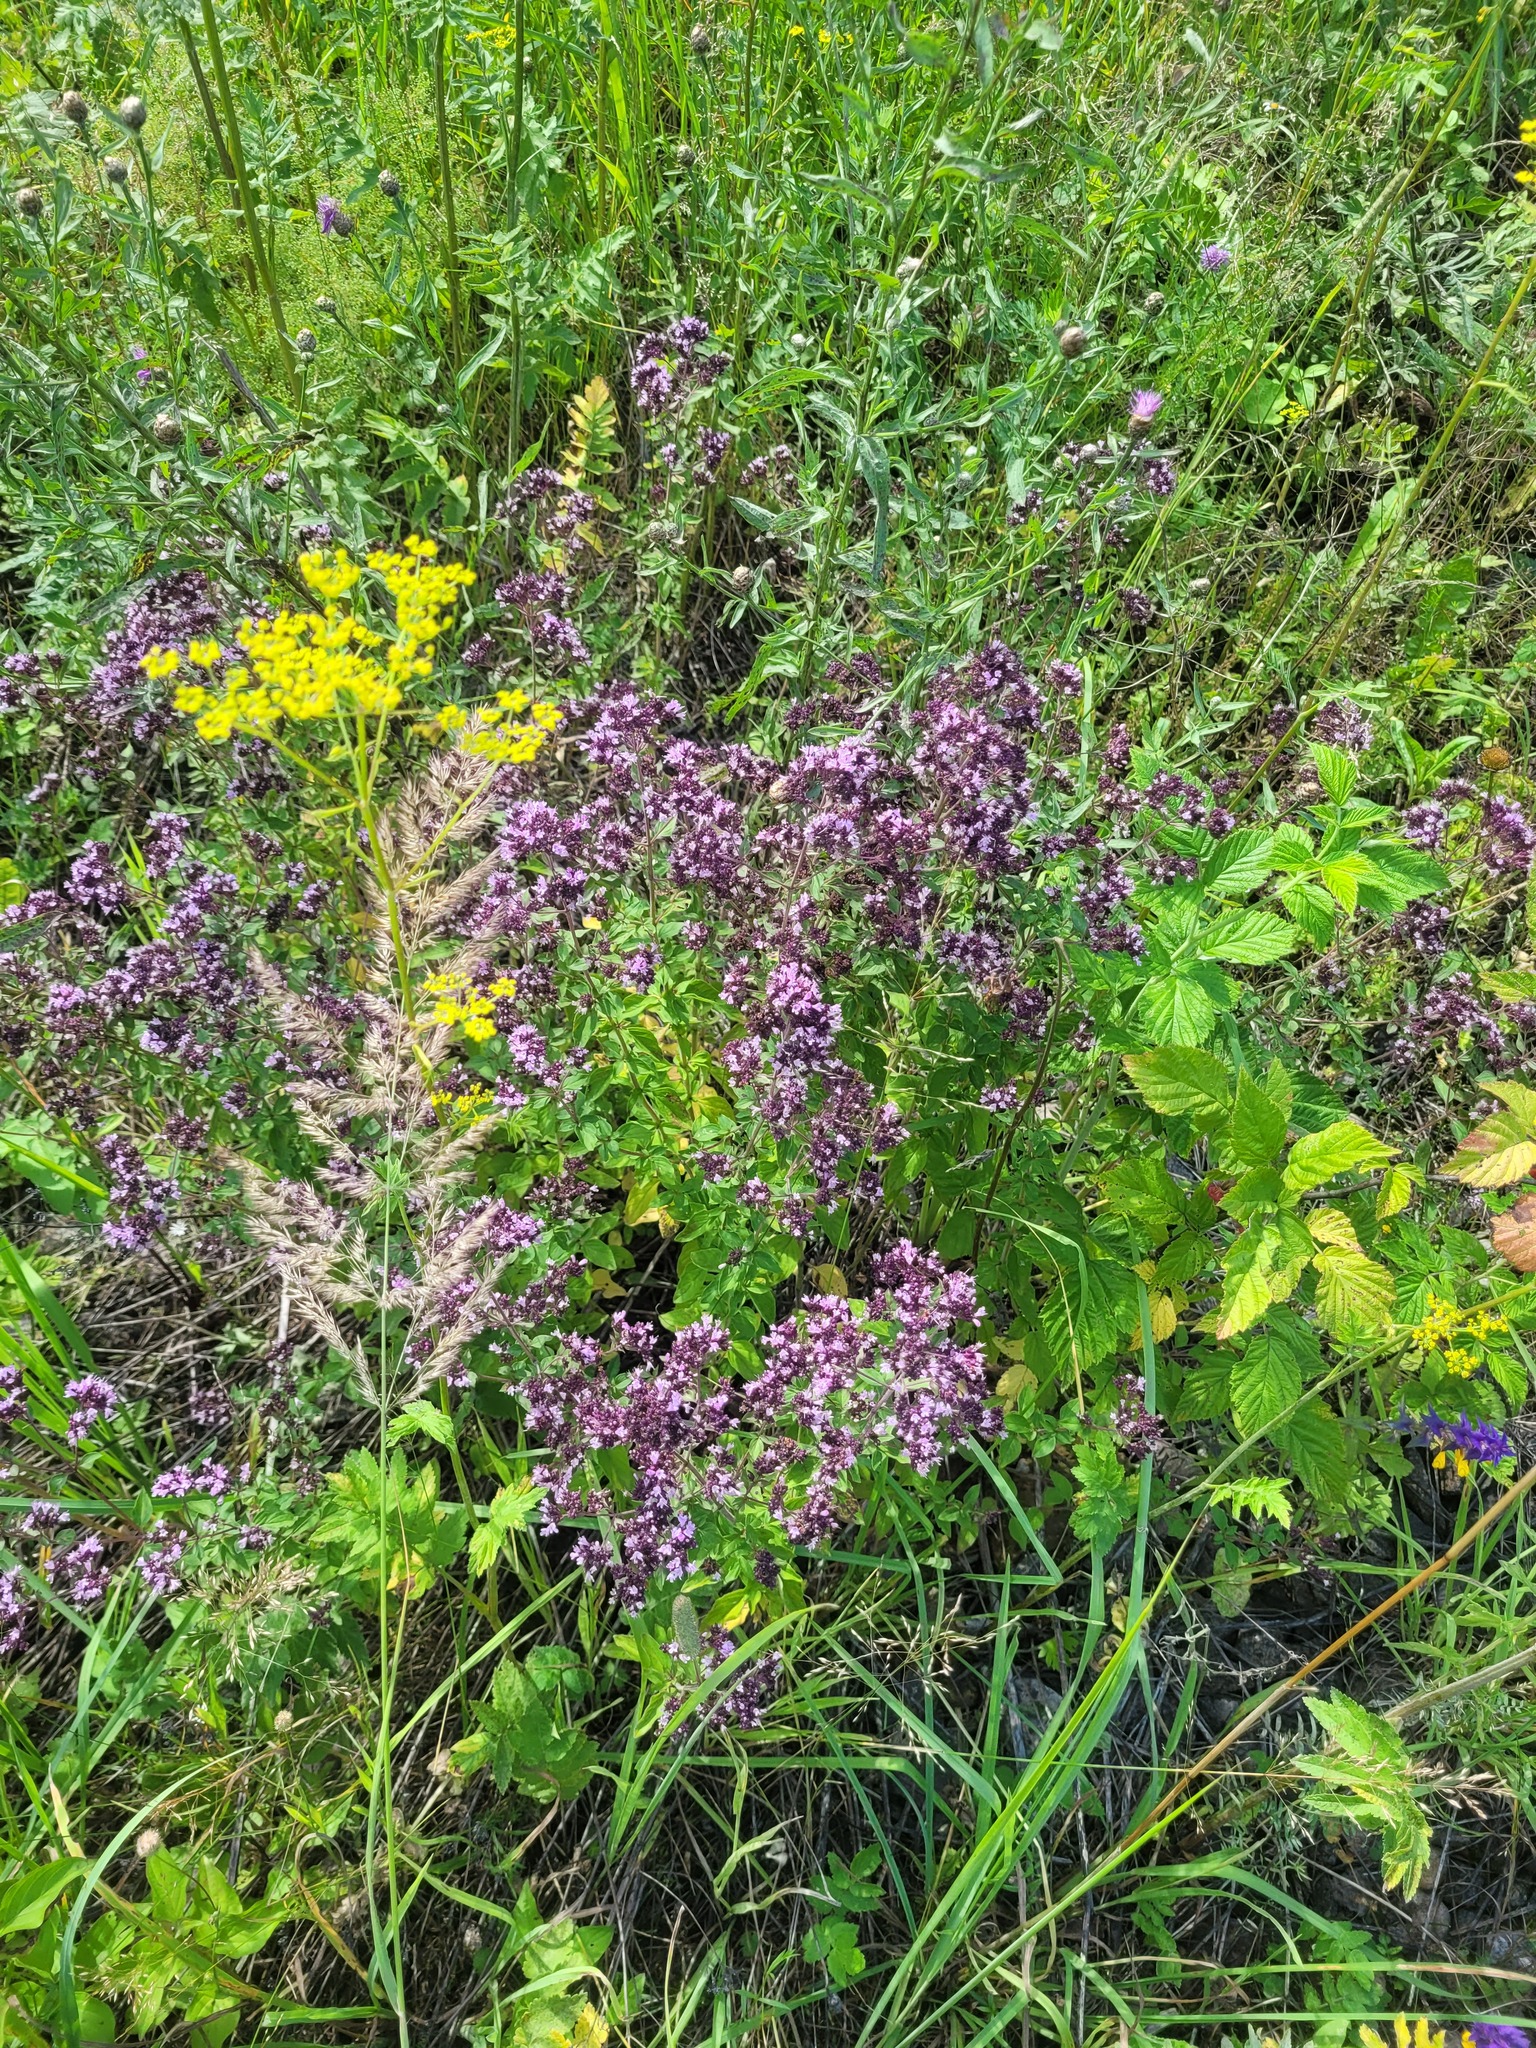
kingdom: Plantae
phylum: Tracheophyta
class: Magnoliopsida
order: Lamiales
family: Lamiaceae
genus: Origanum
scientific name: Origanum vulgare
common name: Wild marjoram
